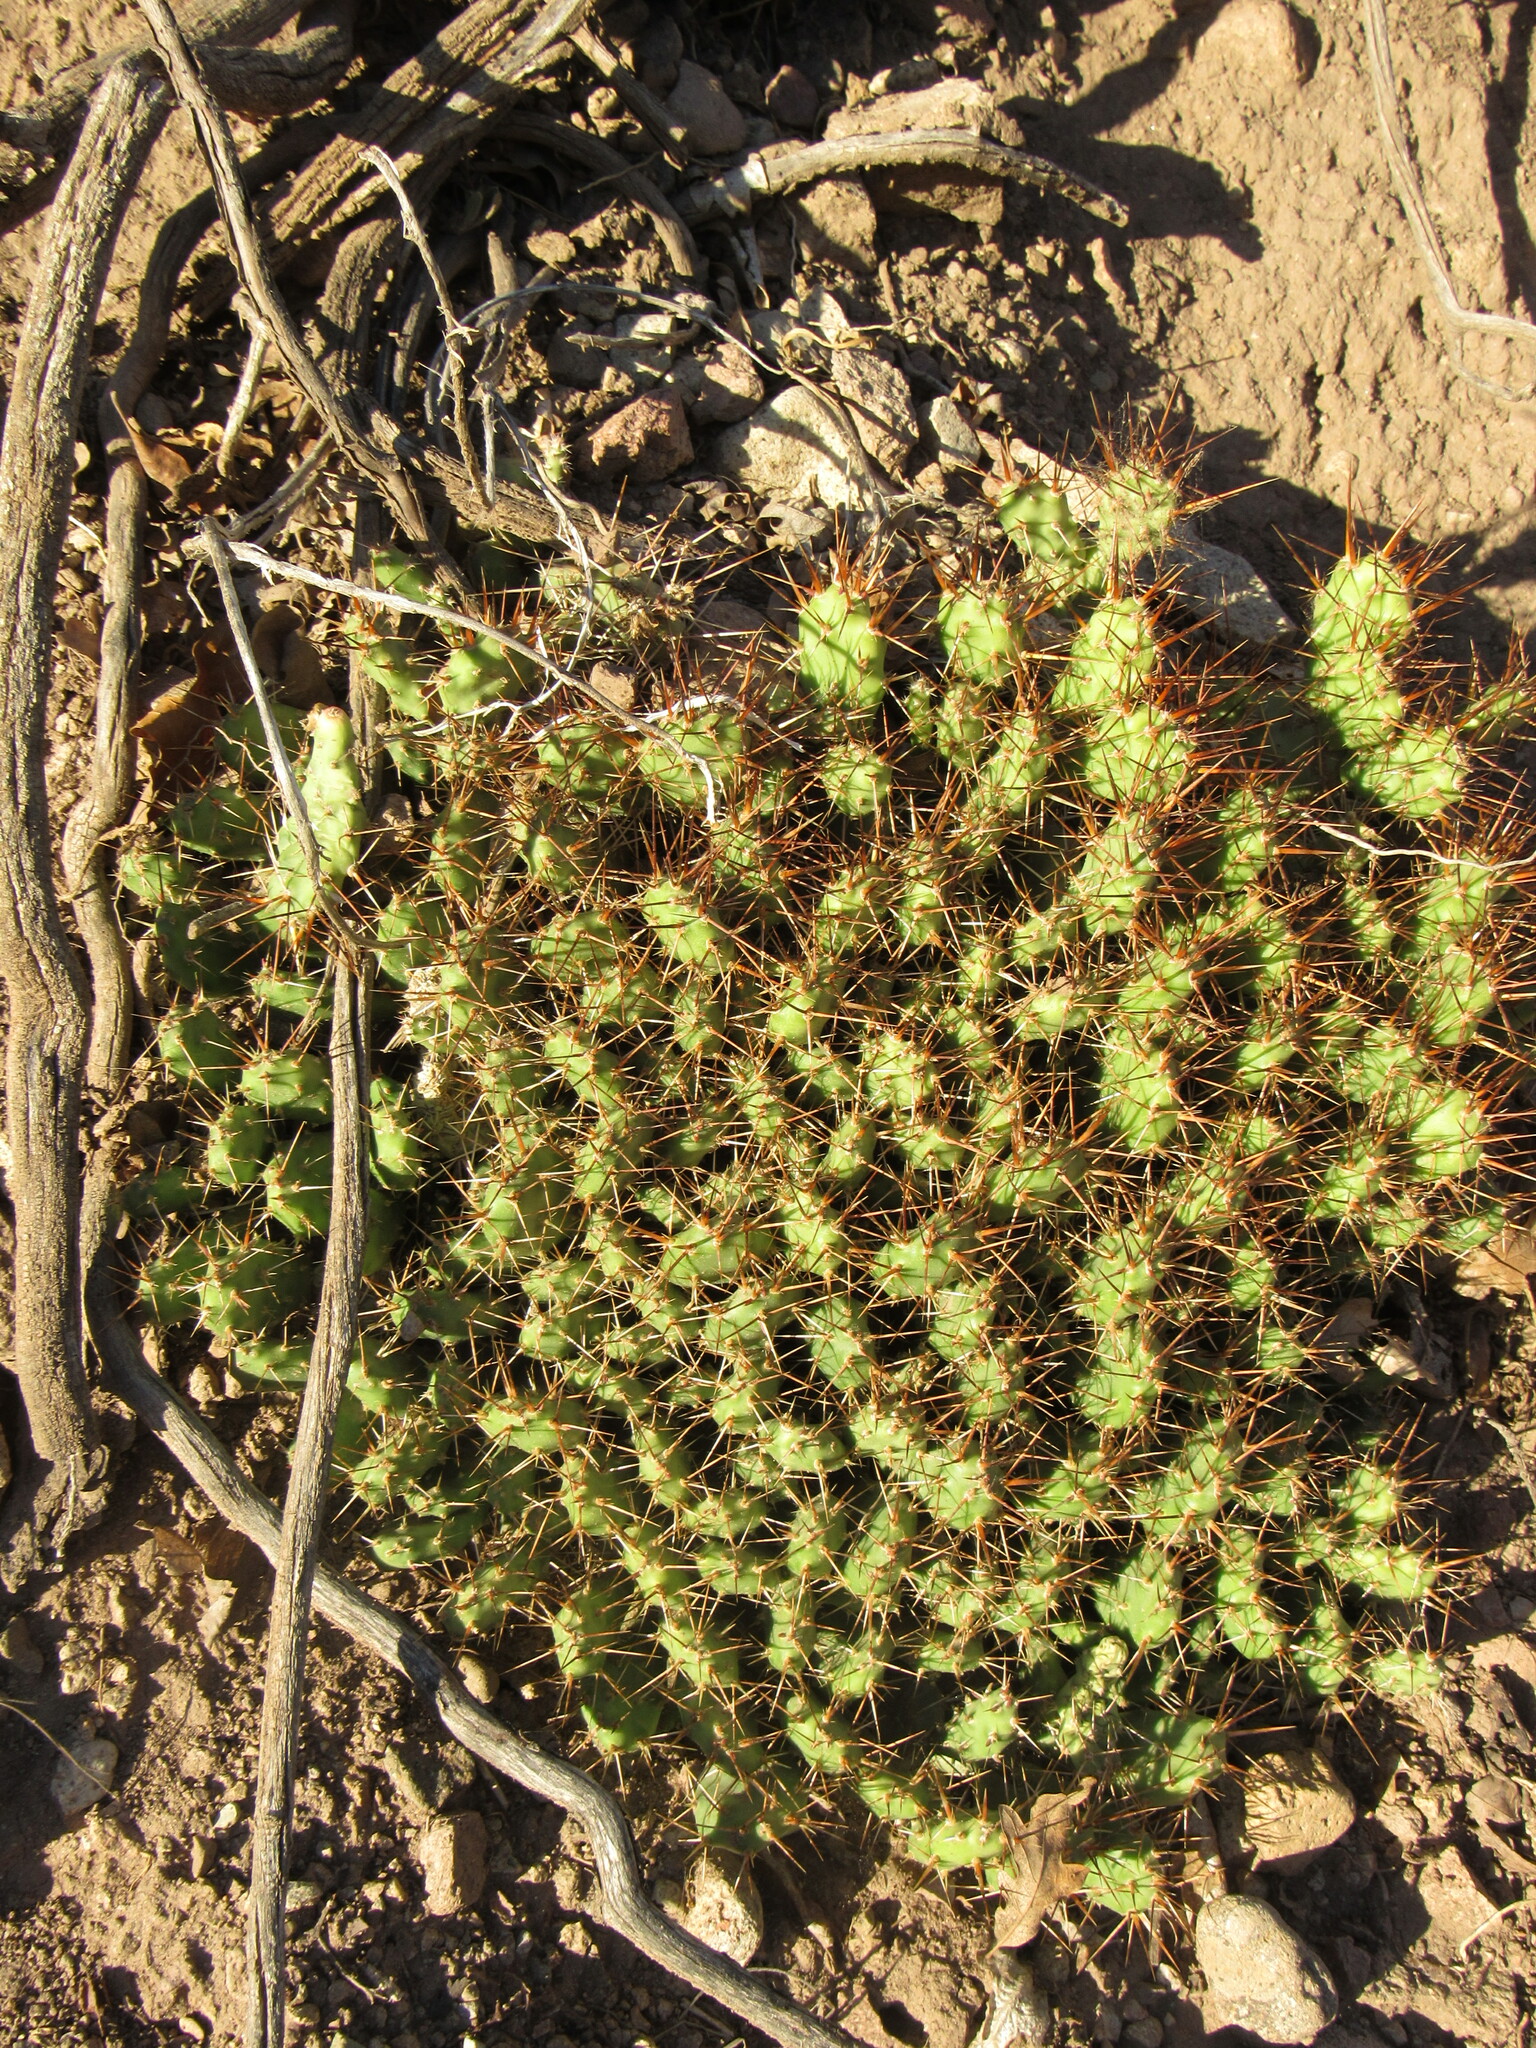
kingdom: Plantae
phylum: Tracheophyta
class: Magnoliopsida
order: Caryophyllales
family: Cactaceae
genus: Opuntia
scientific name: Opuntia fragilis
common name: Brittle cactus
